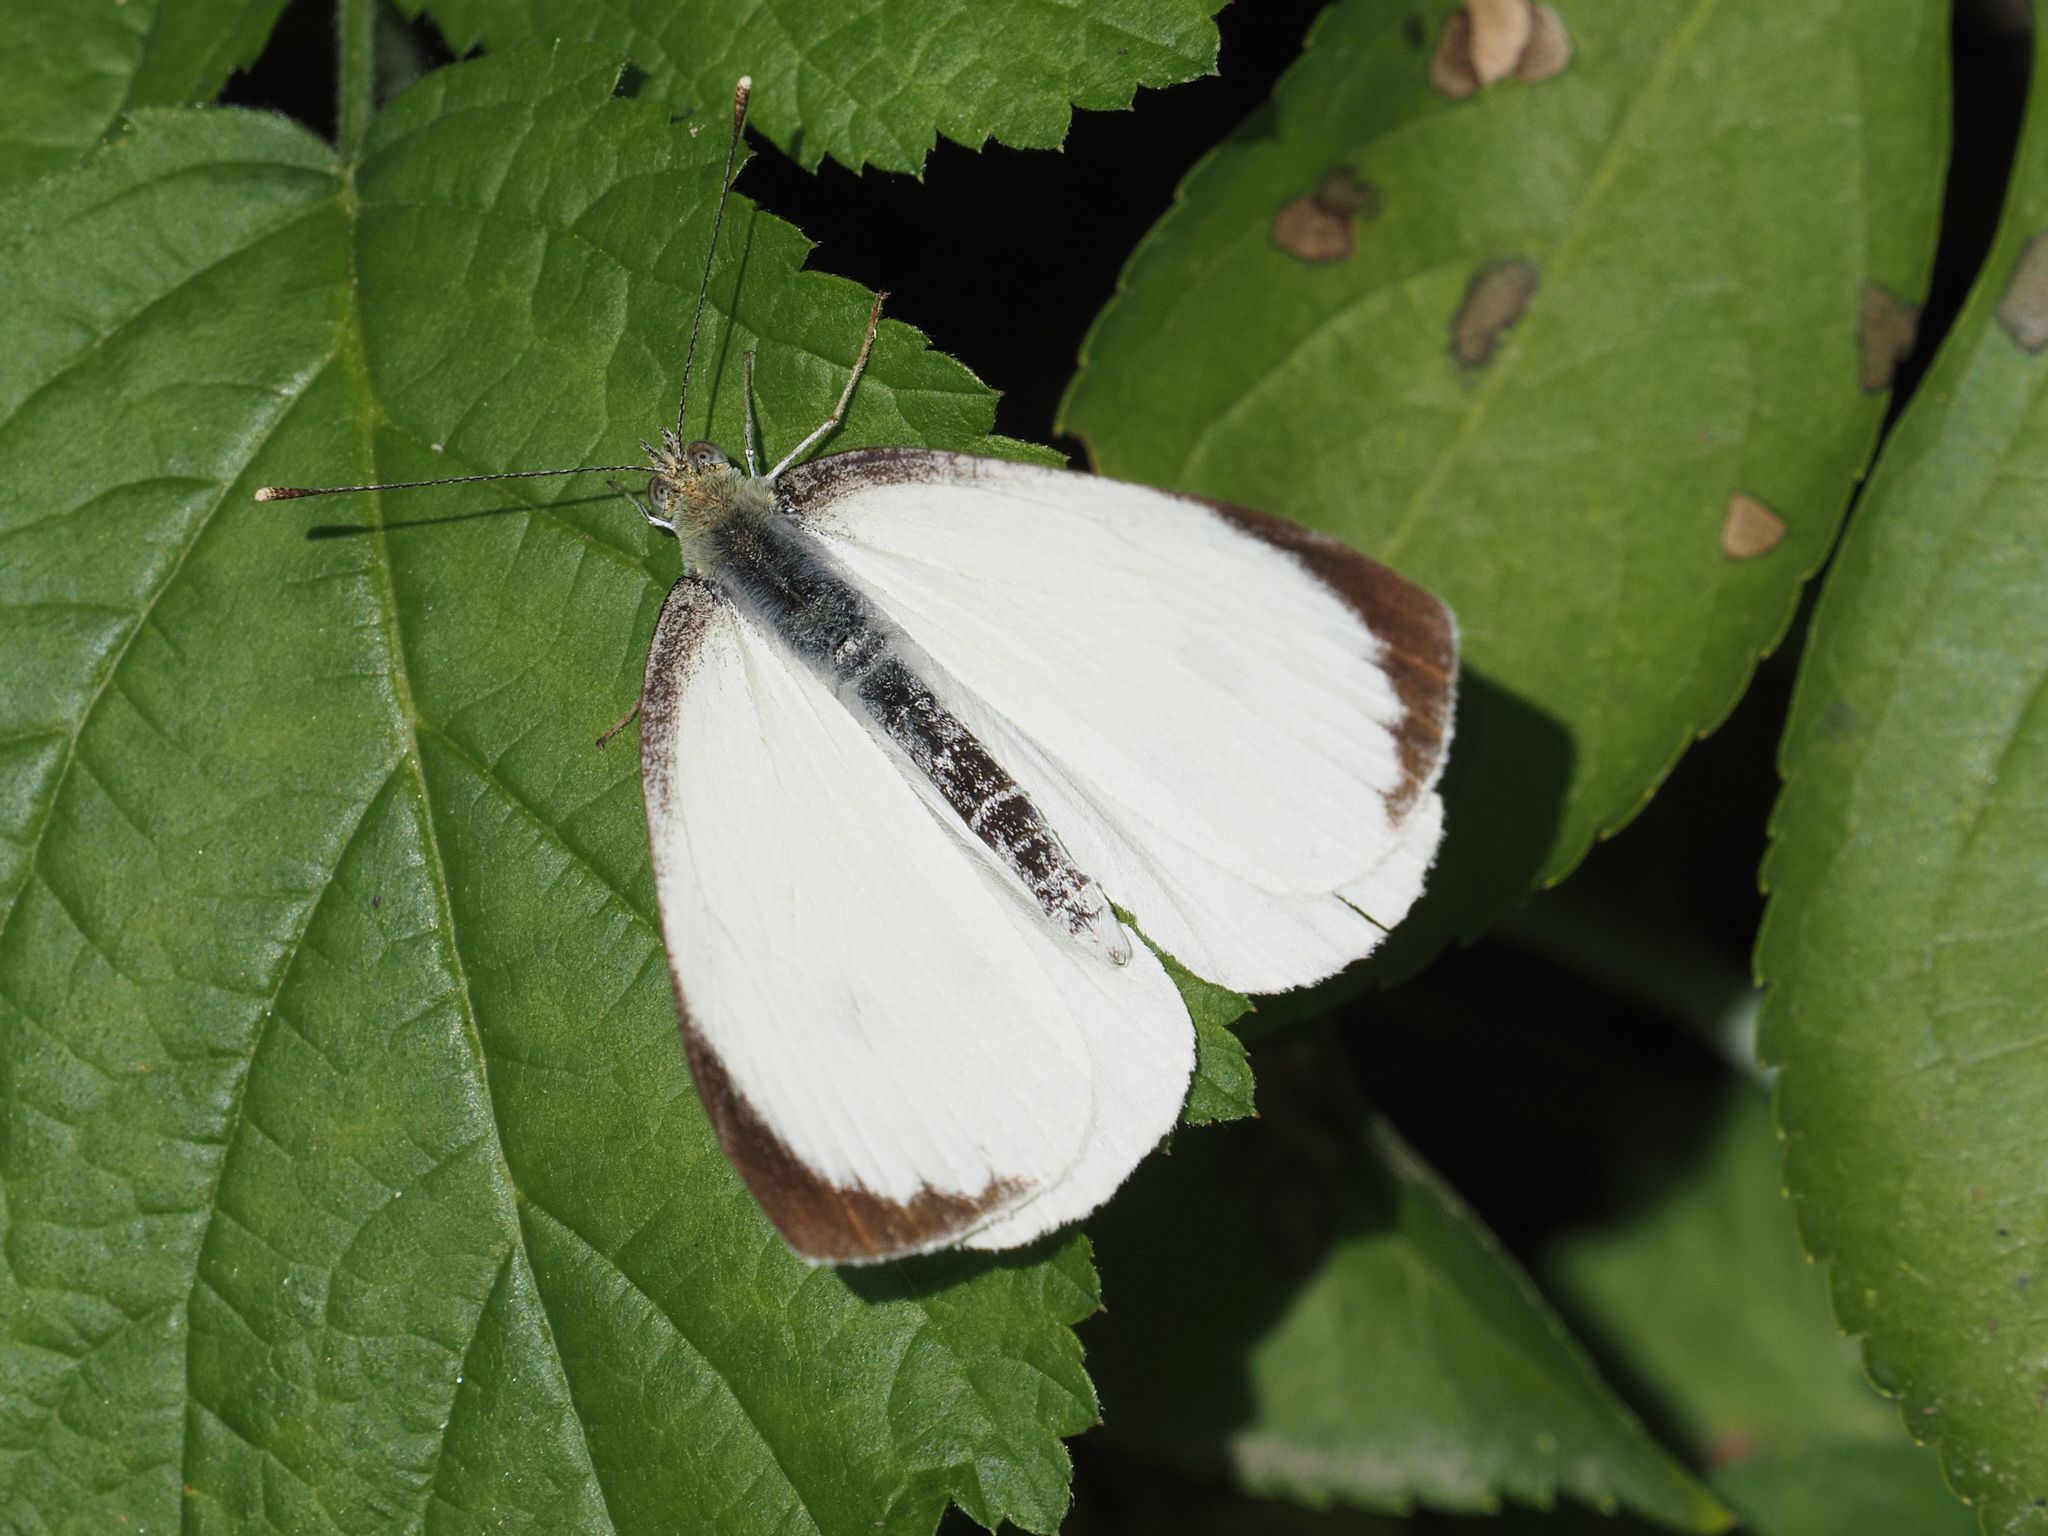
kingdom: Animalia
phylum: Arthropoda
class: Insecta
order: Lepidoptera
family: Pieridae
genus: Pieris
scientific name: Pieris brassicae
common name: Large white
